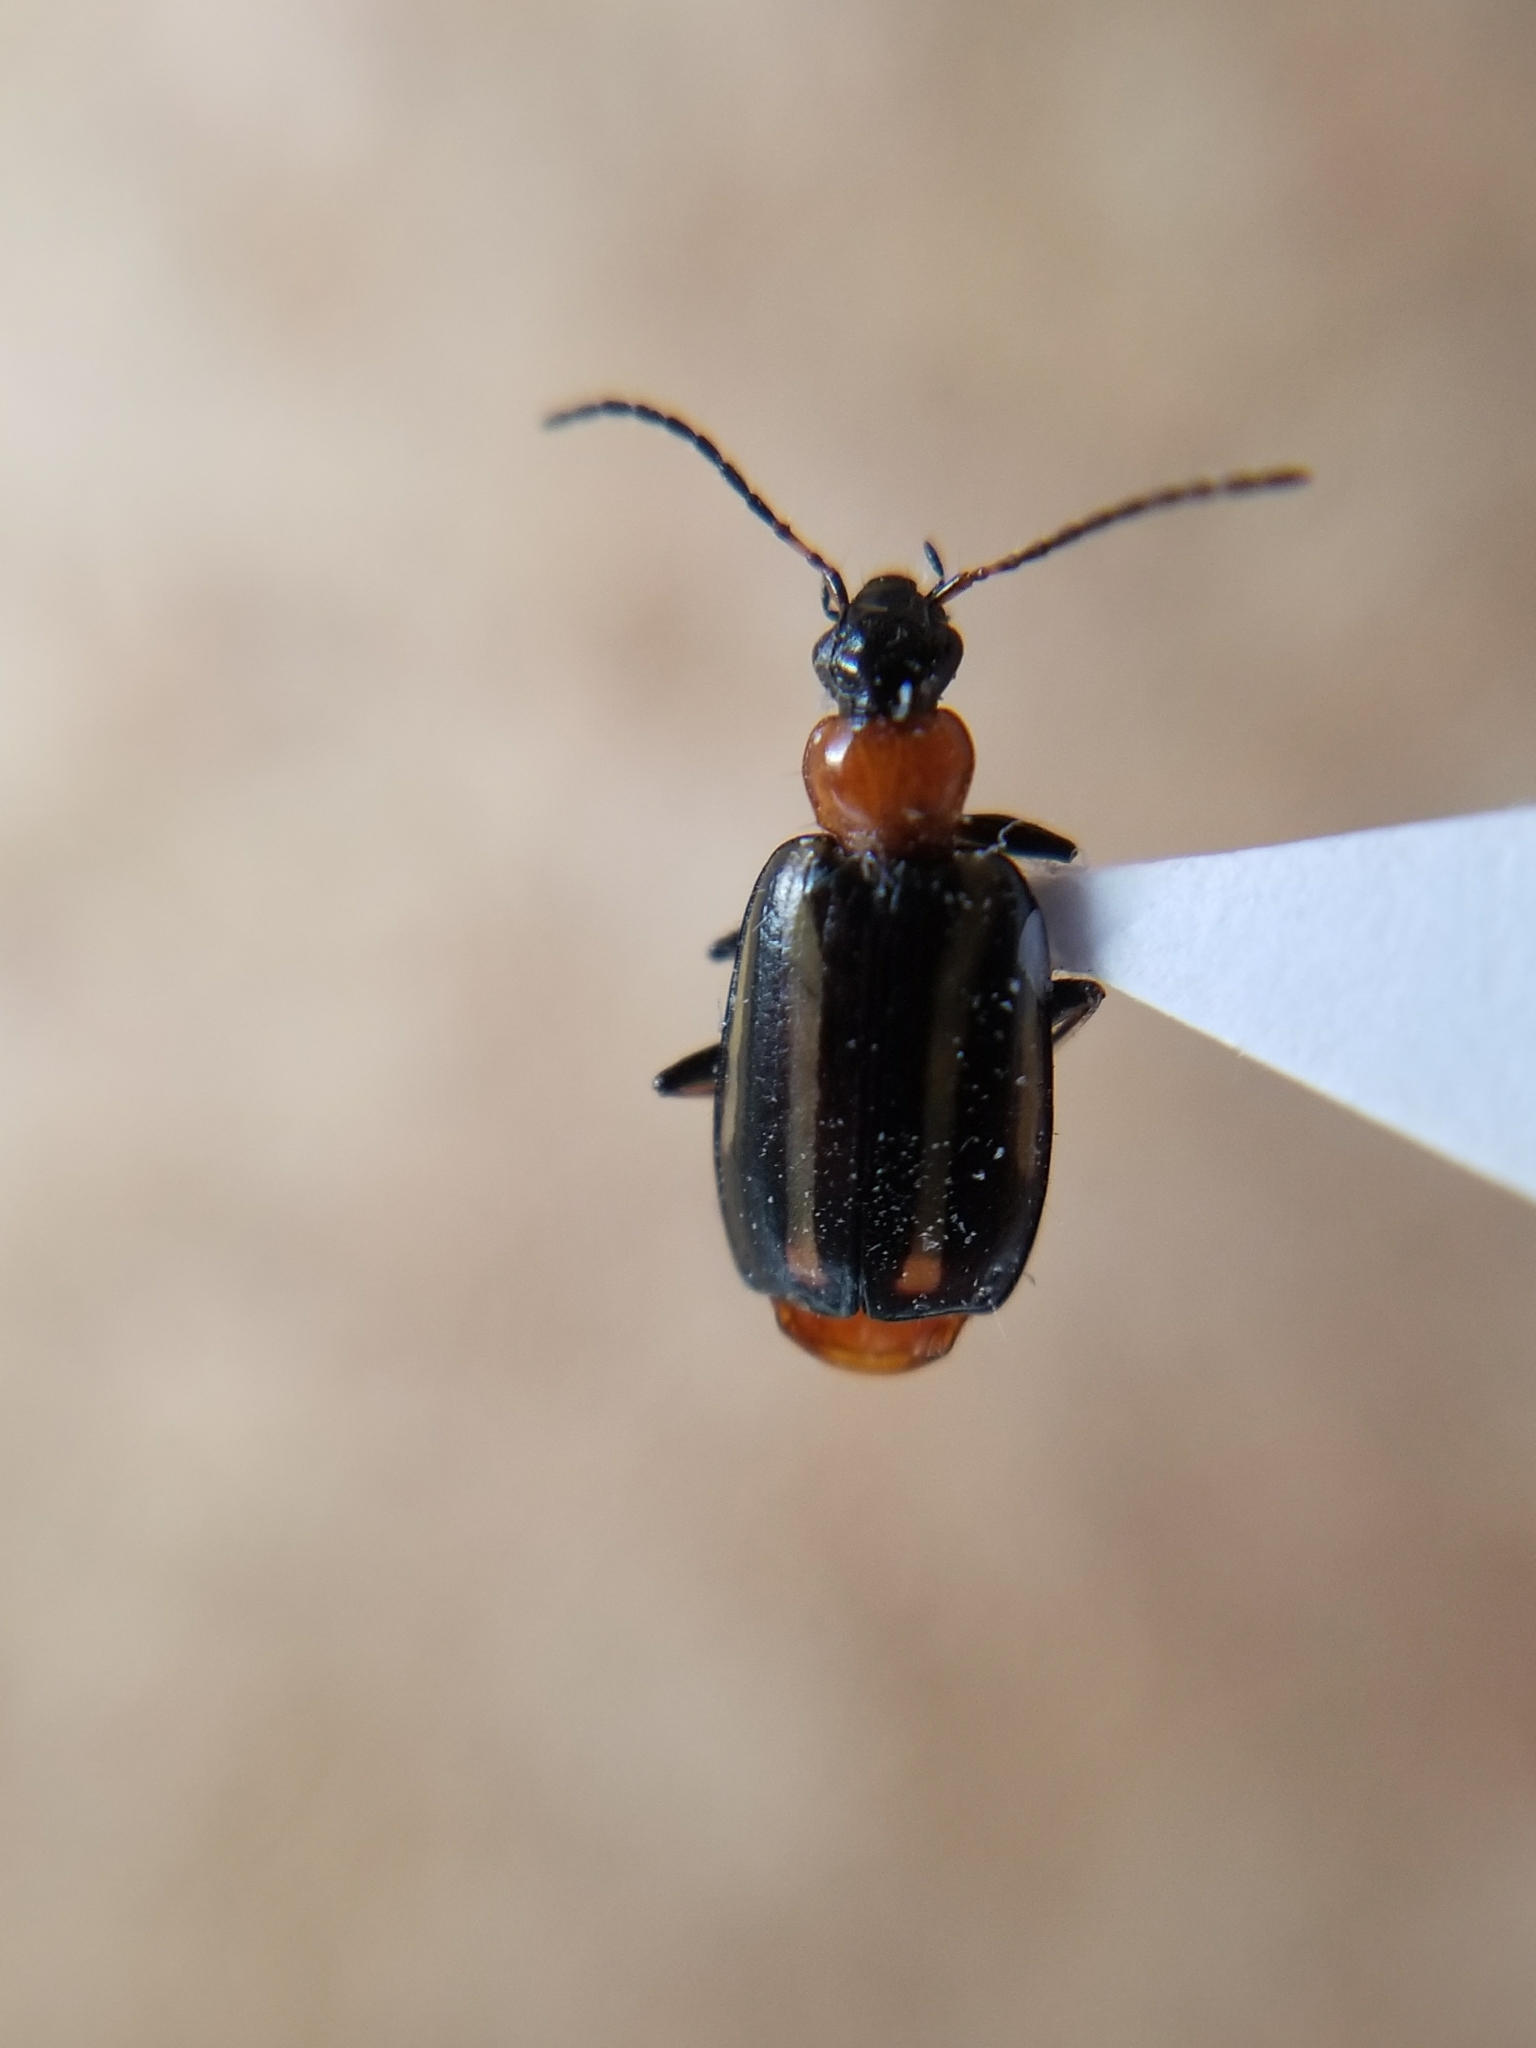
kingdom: Animalia
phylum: Arthropoda
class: Insecta
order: Coleoptera
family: Carabidae
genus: Lebia
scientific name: Lebia bivittata
